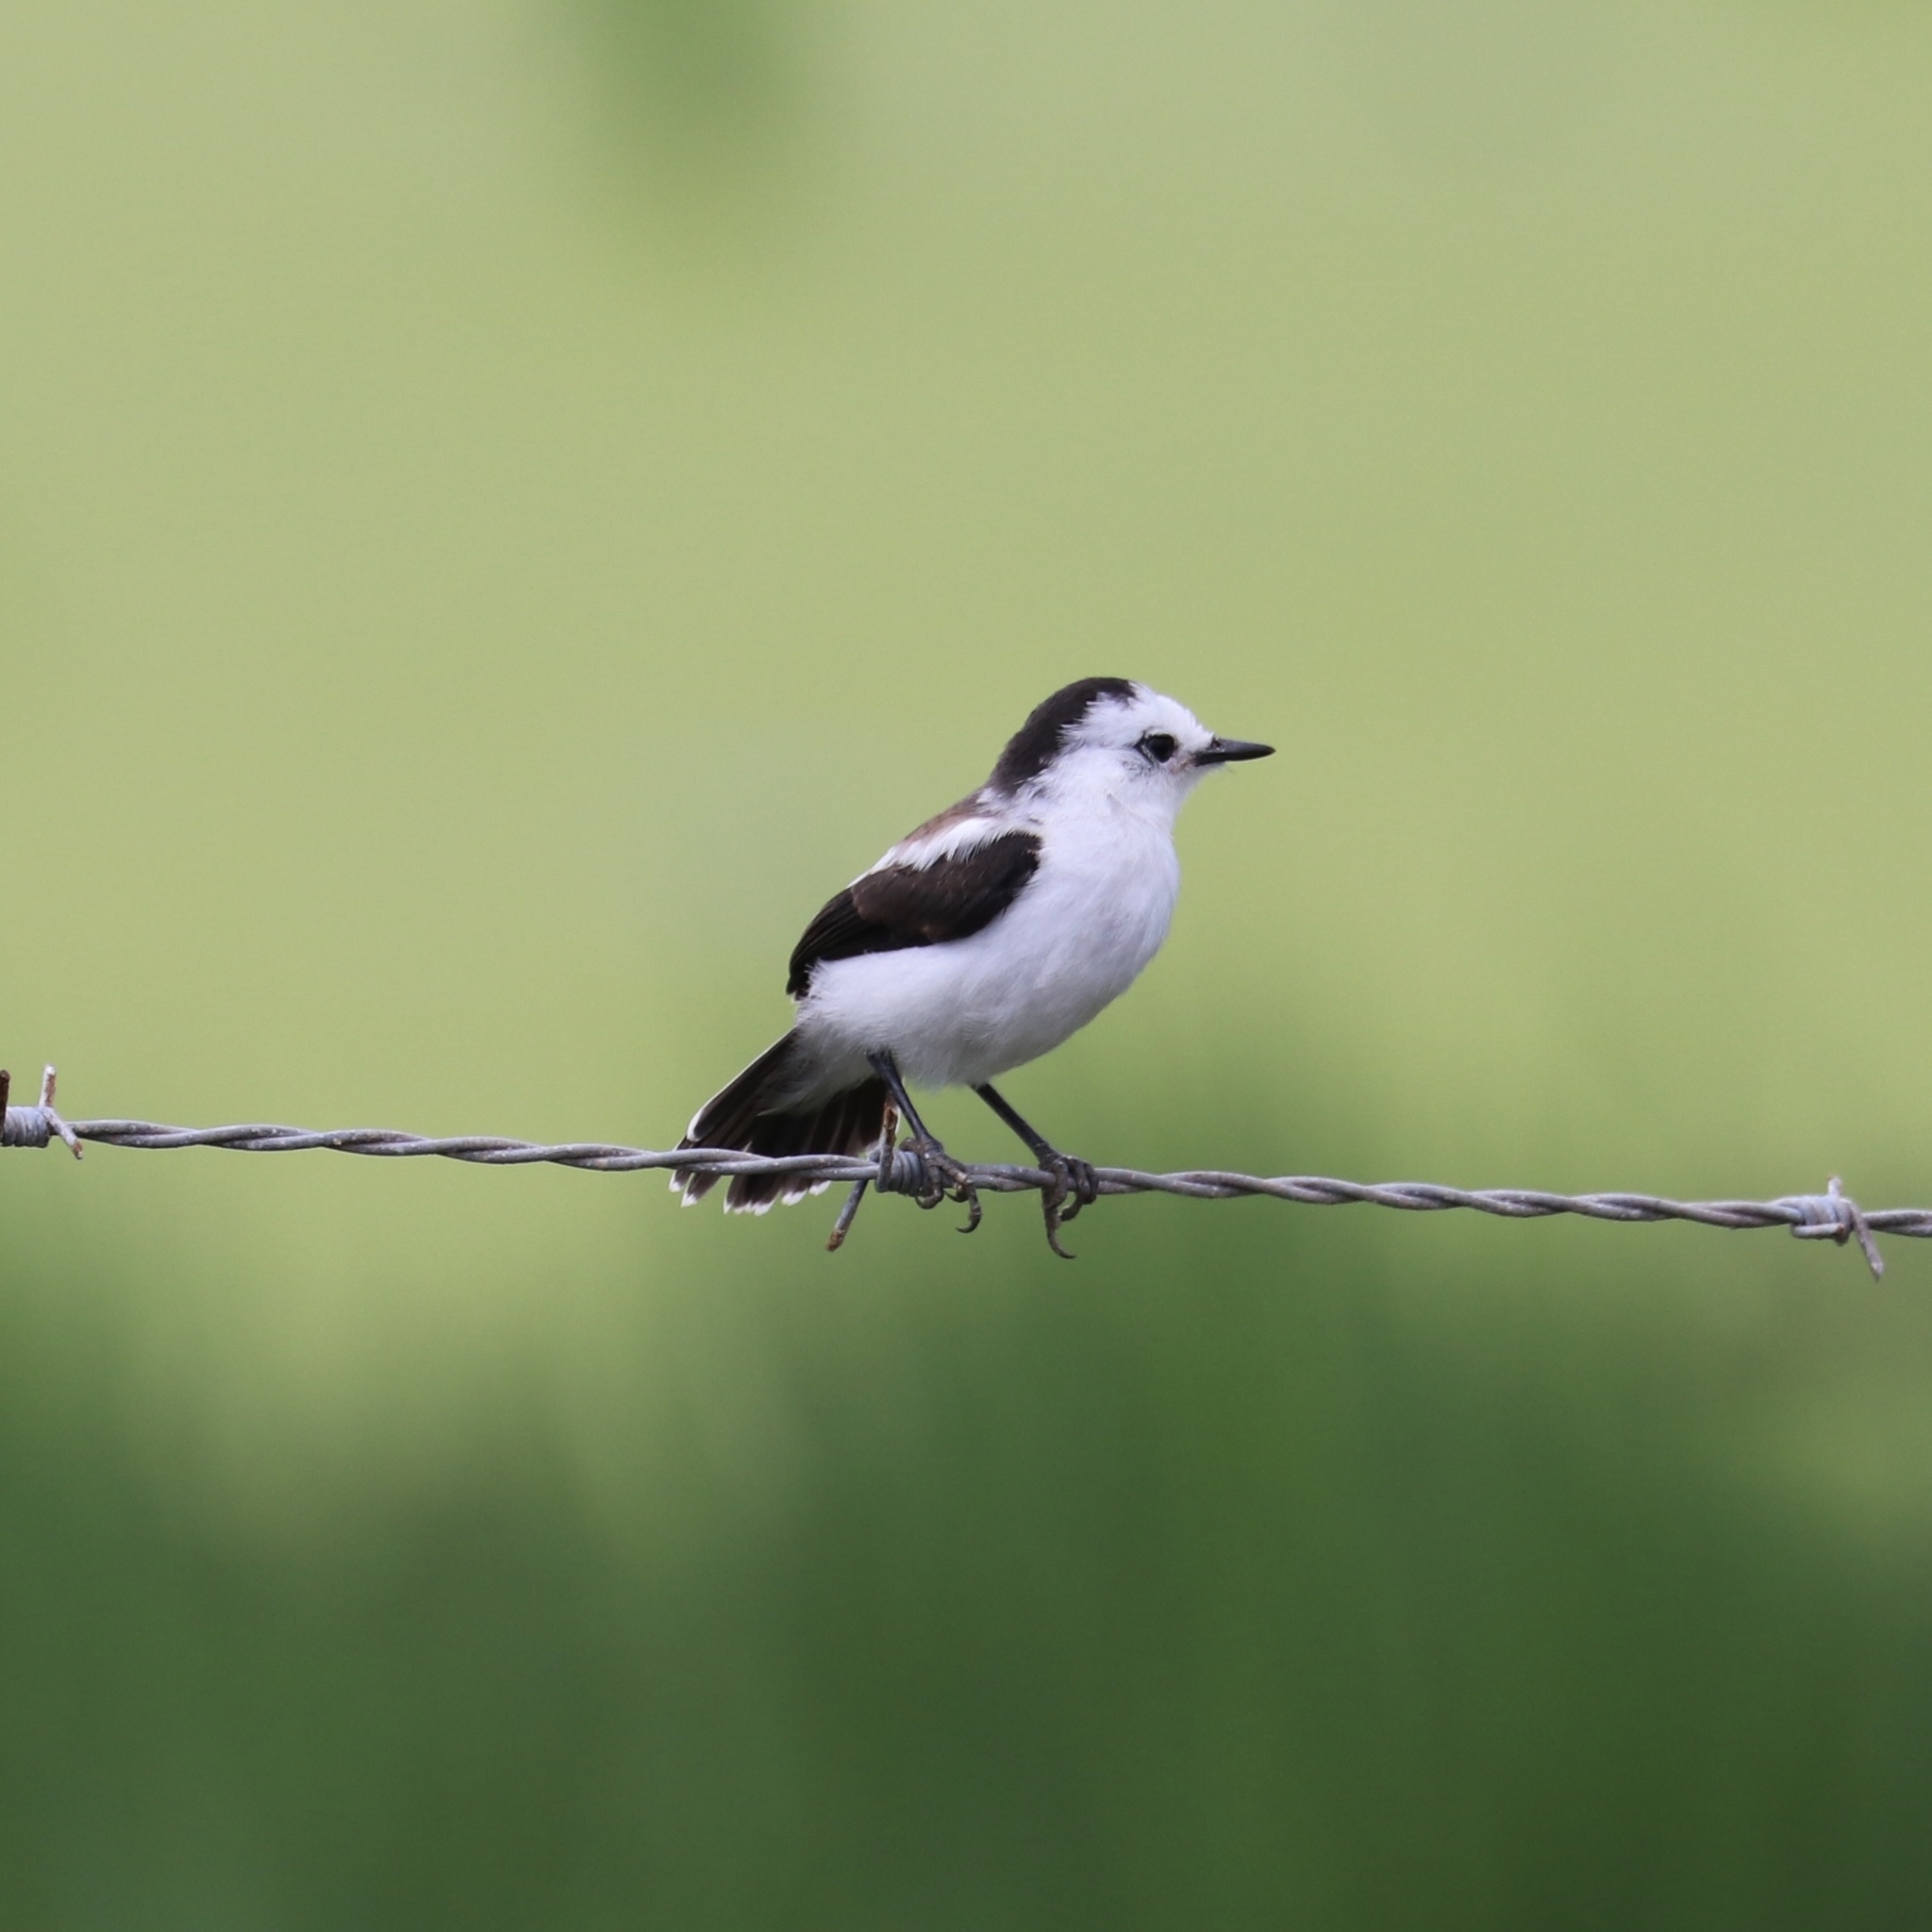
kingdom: Animalia
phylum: Chordata
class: Aves
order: Passeriformes
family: Tyrannidae
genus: Fluvicola
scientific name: Fluvicola pica
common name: Pied water-tyrant
